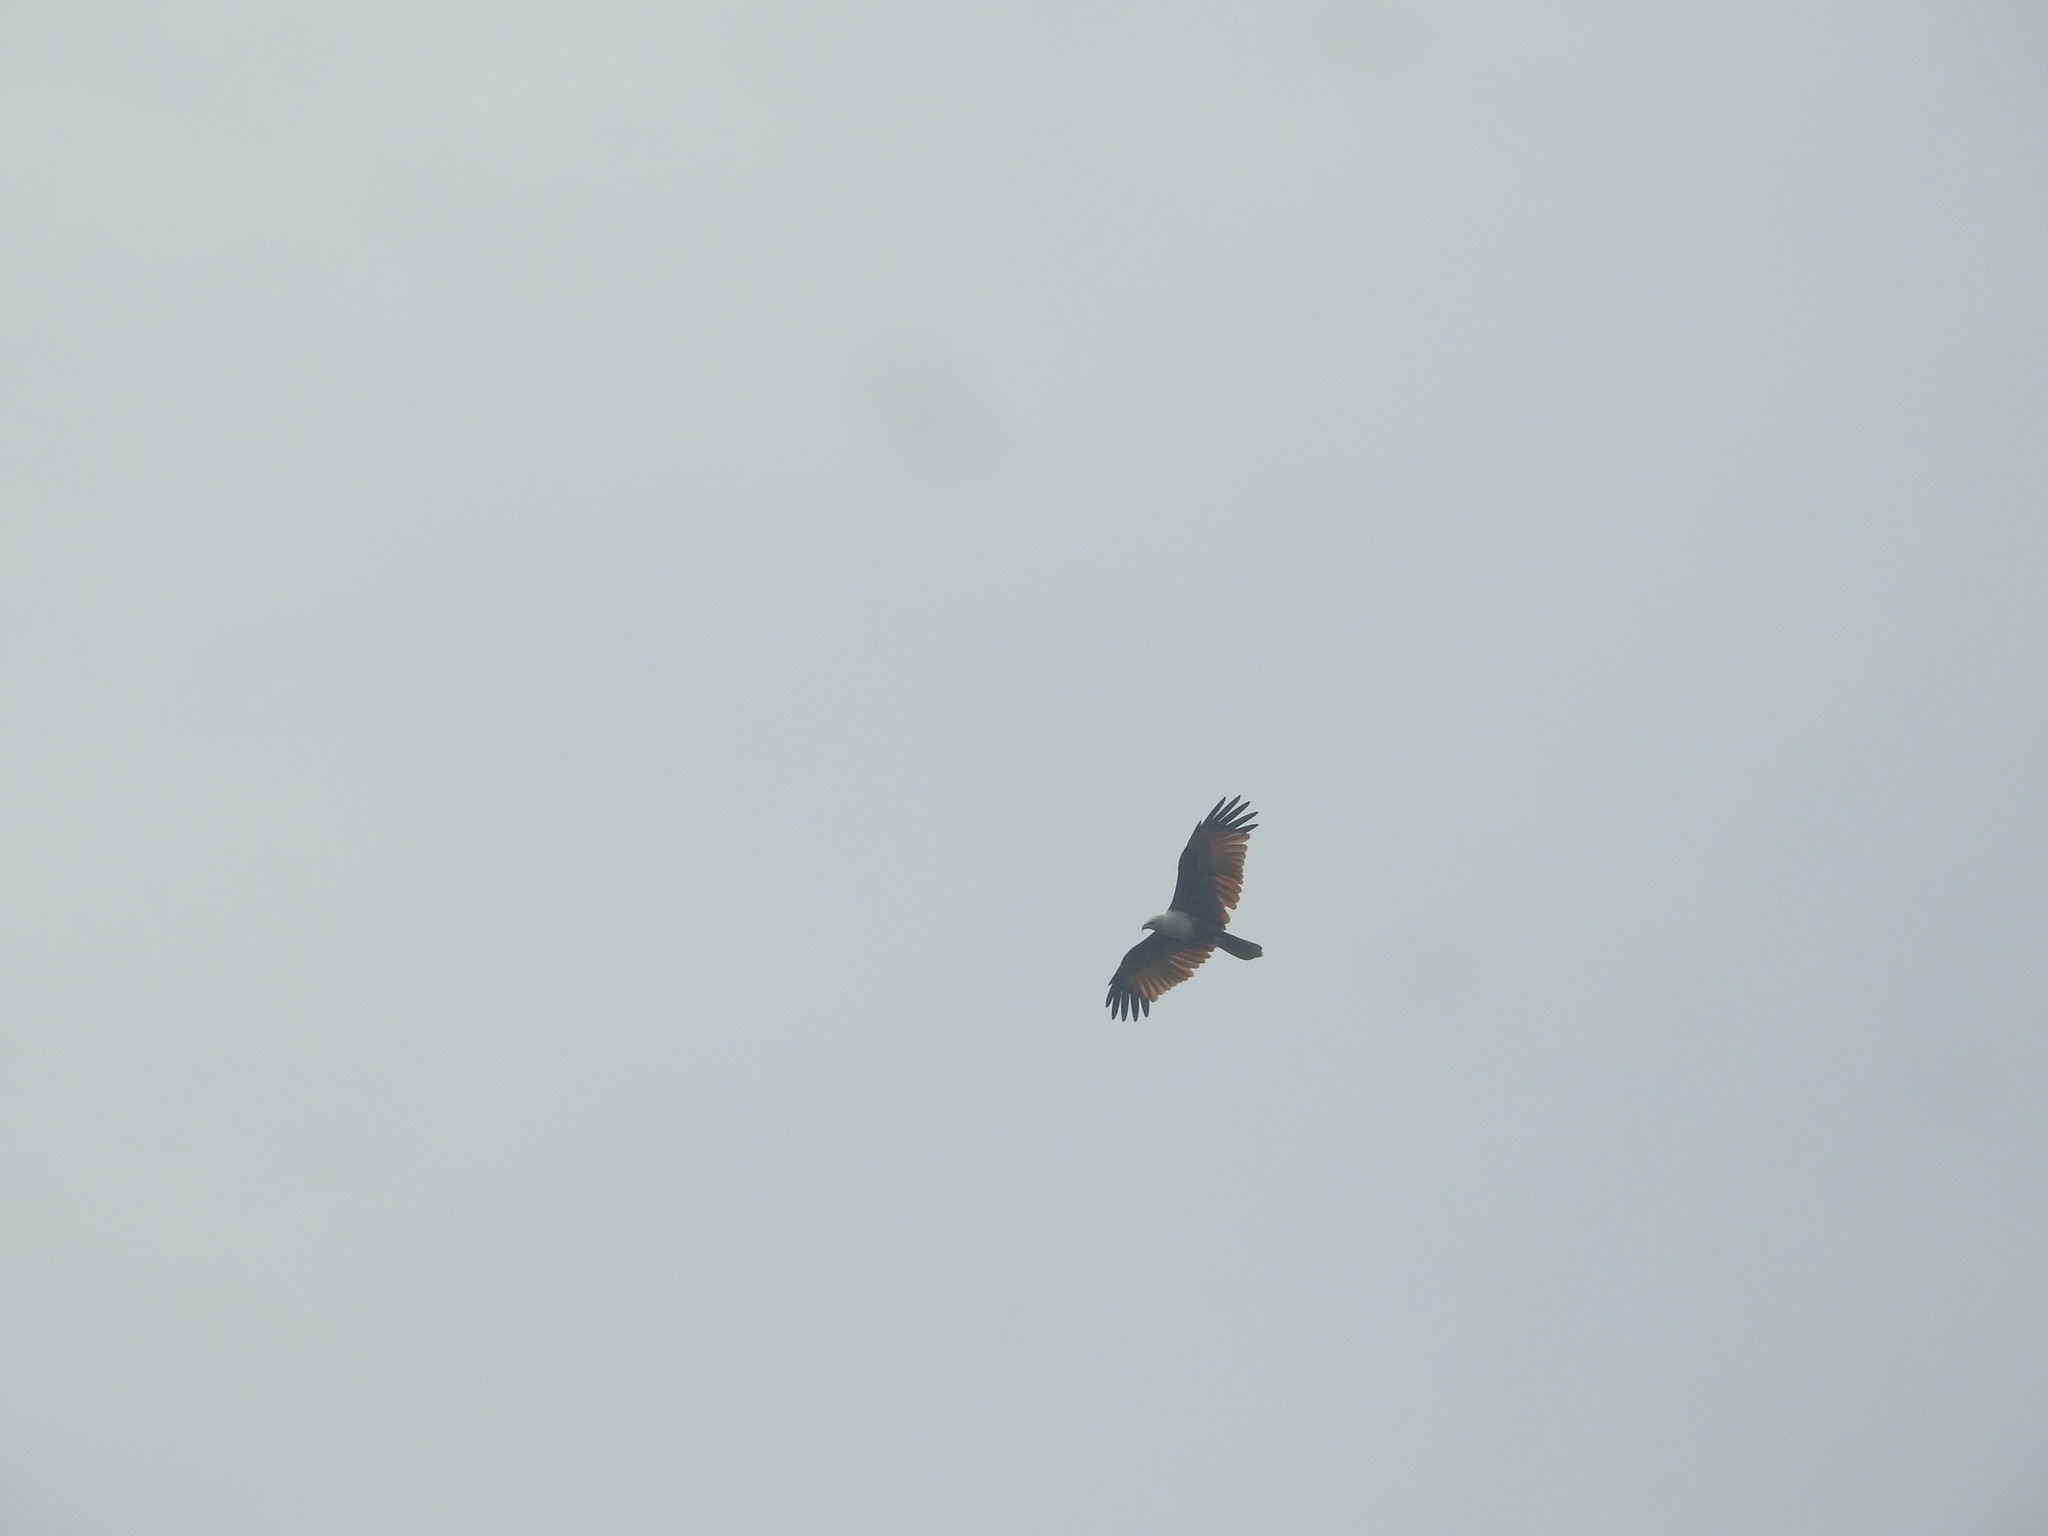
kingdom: Animalia
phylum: Chordata
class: Aves
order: Accipitriformes
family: Accipitridae
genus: Haliastur
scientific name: Haliastur indus
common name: Brahminy kite
